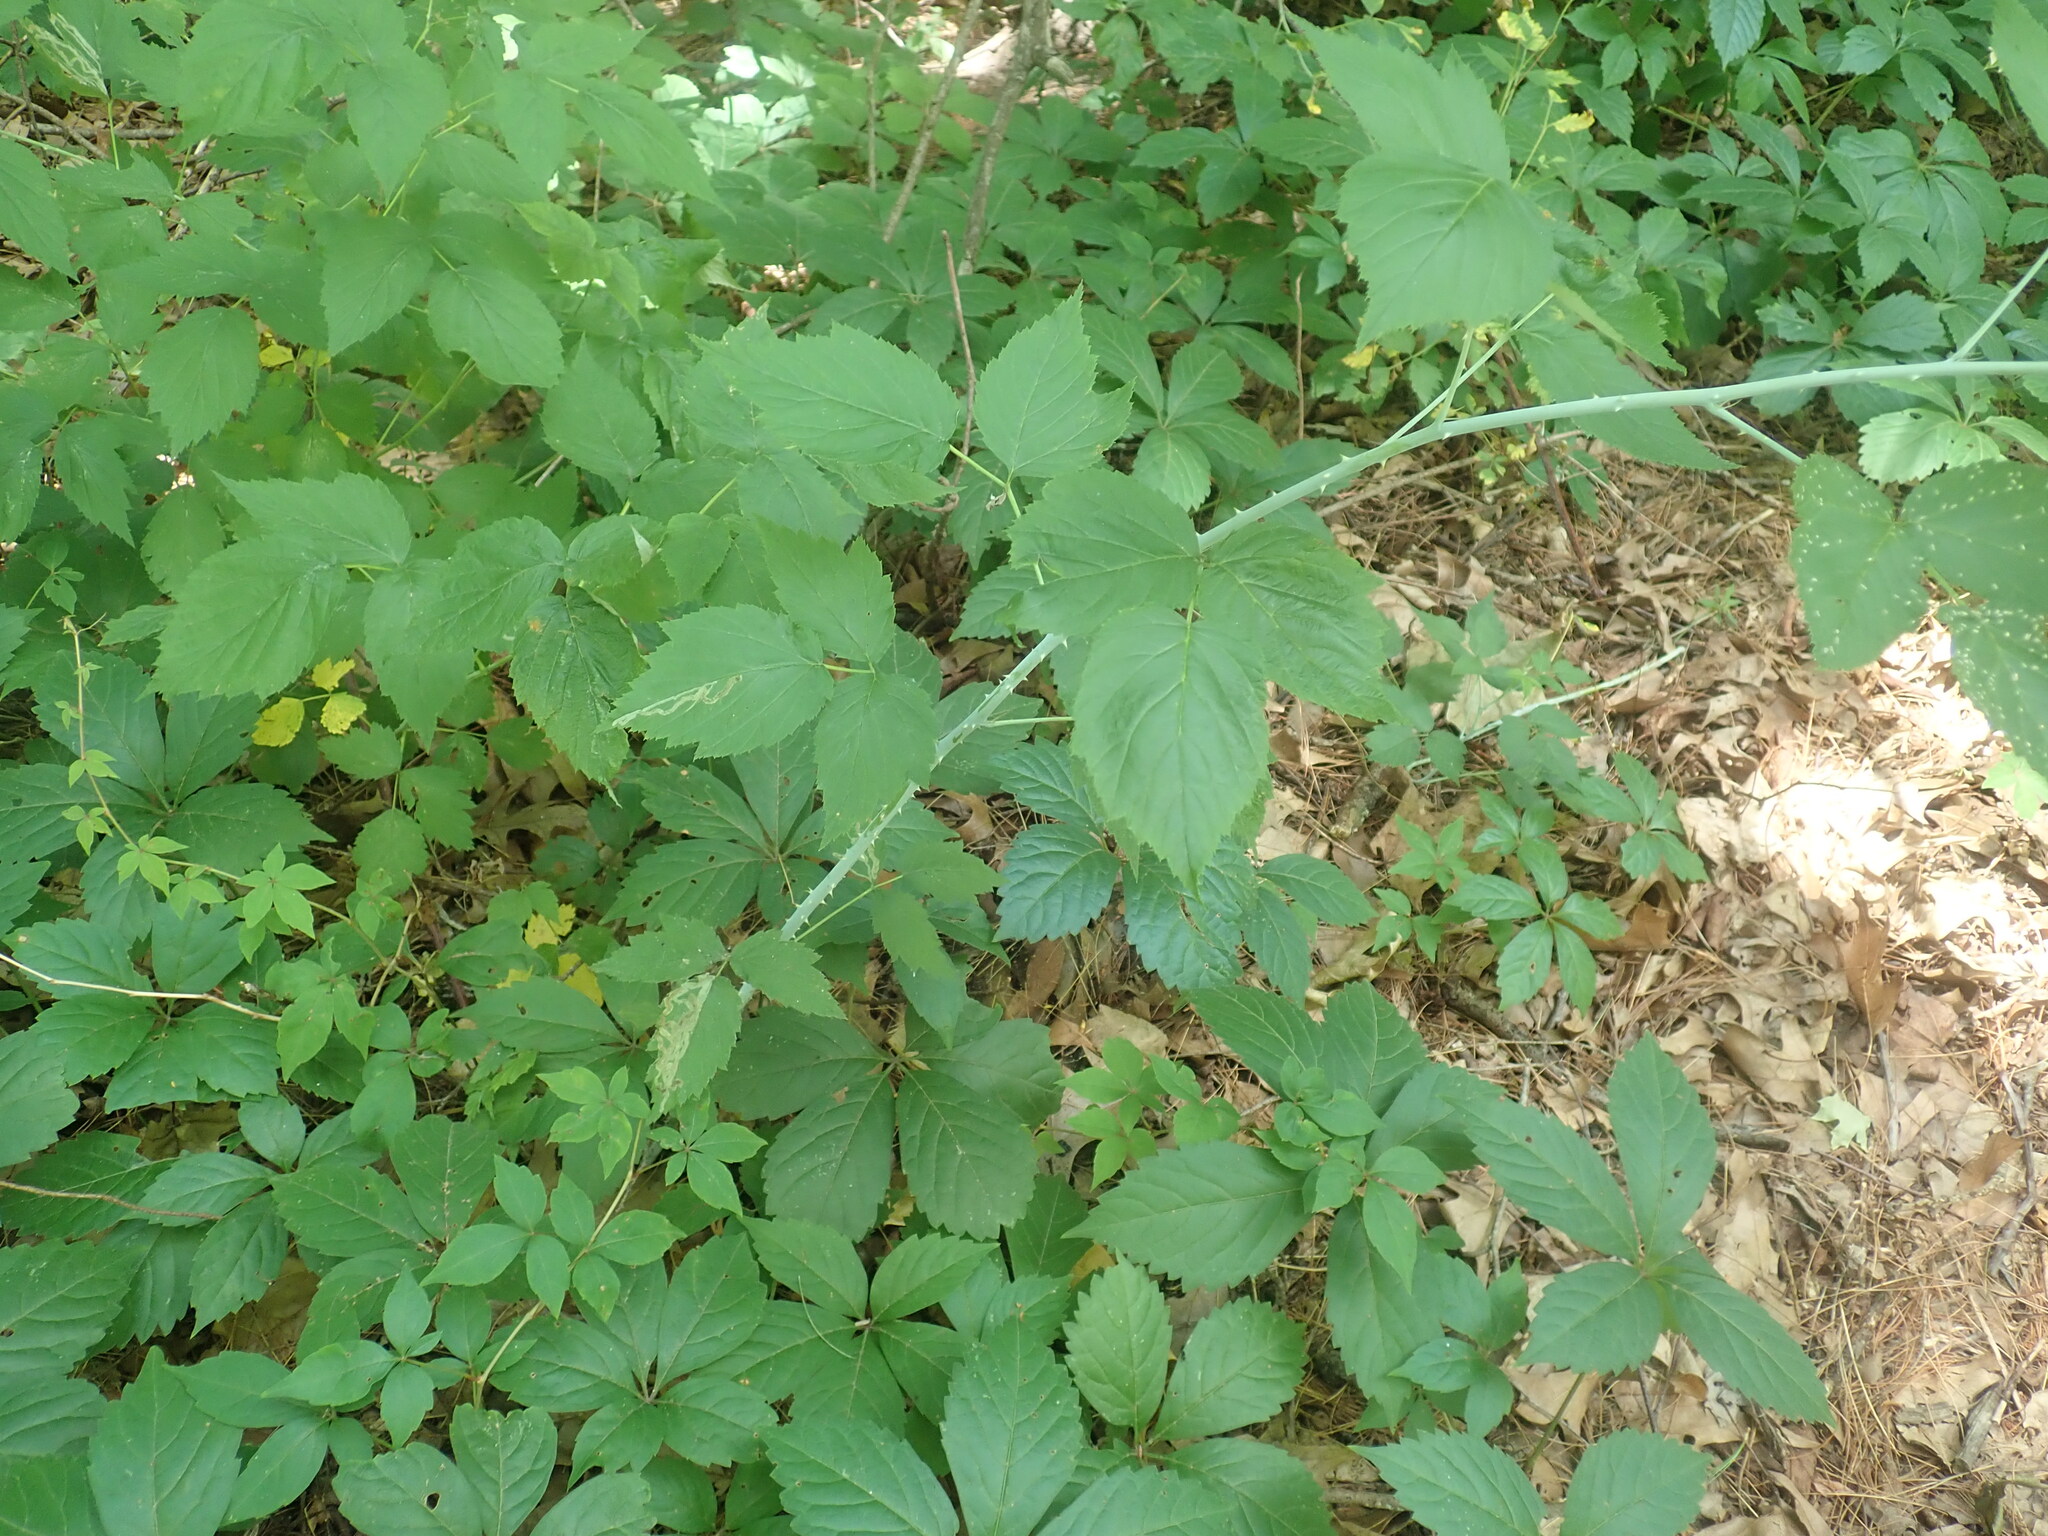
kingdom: Plantae
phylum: Tracheophyta
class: Magnoliopsida
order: Rosales
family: Rosaceae
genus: Rubus
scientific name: Rubus occidentalis
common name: Black raspberry
